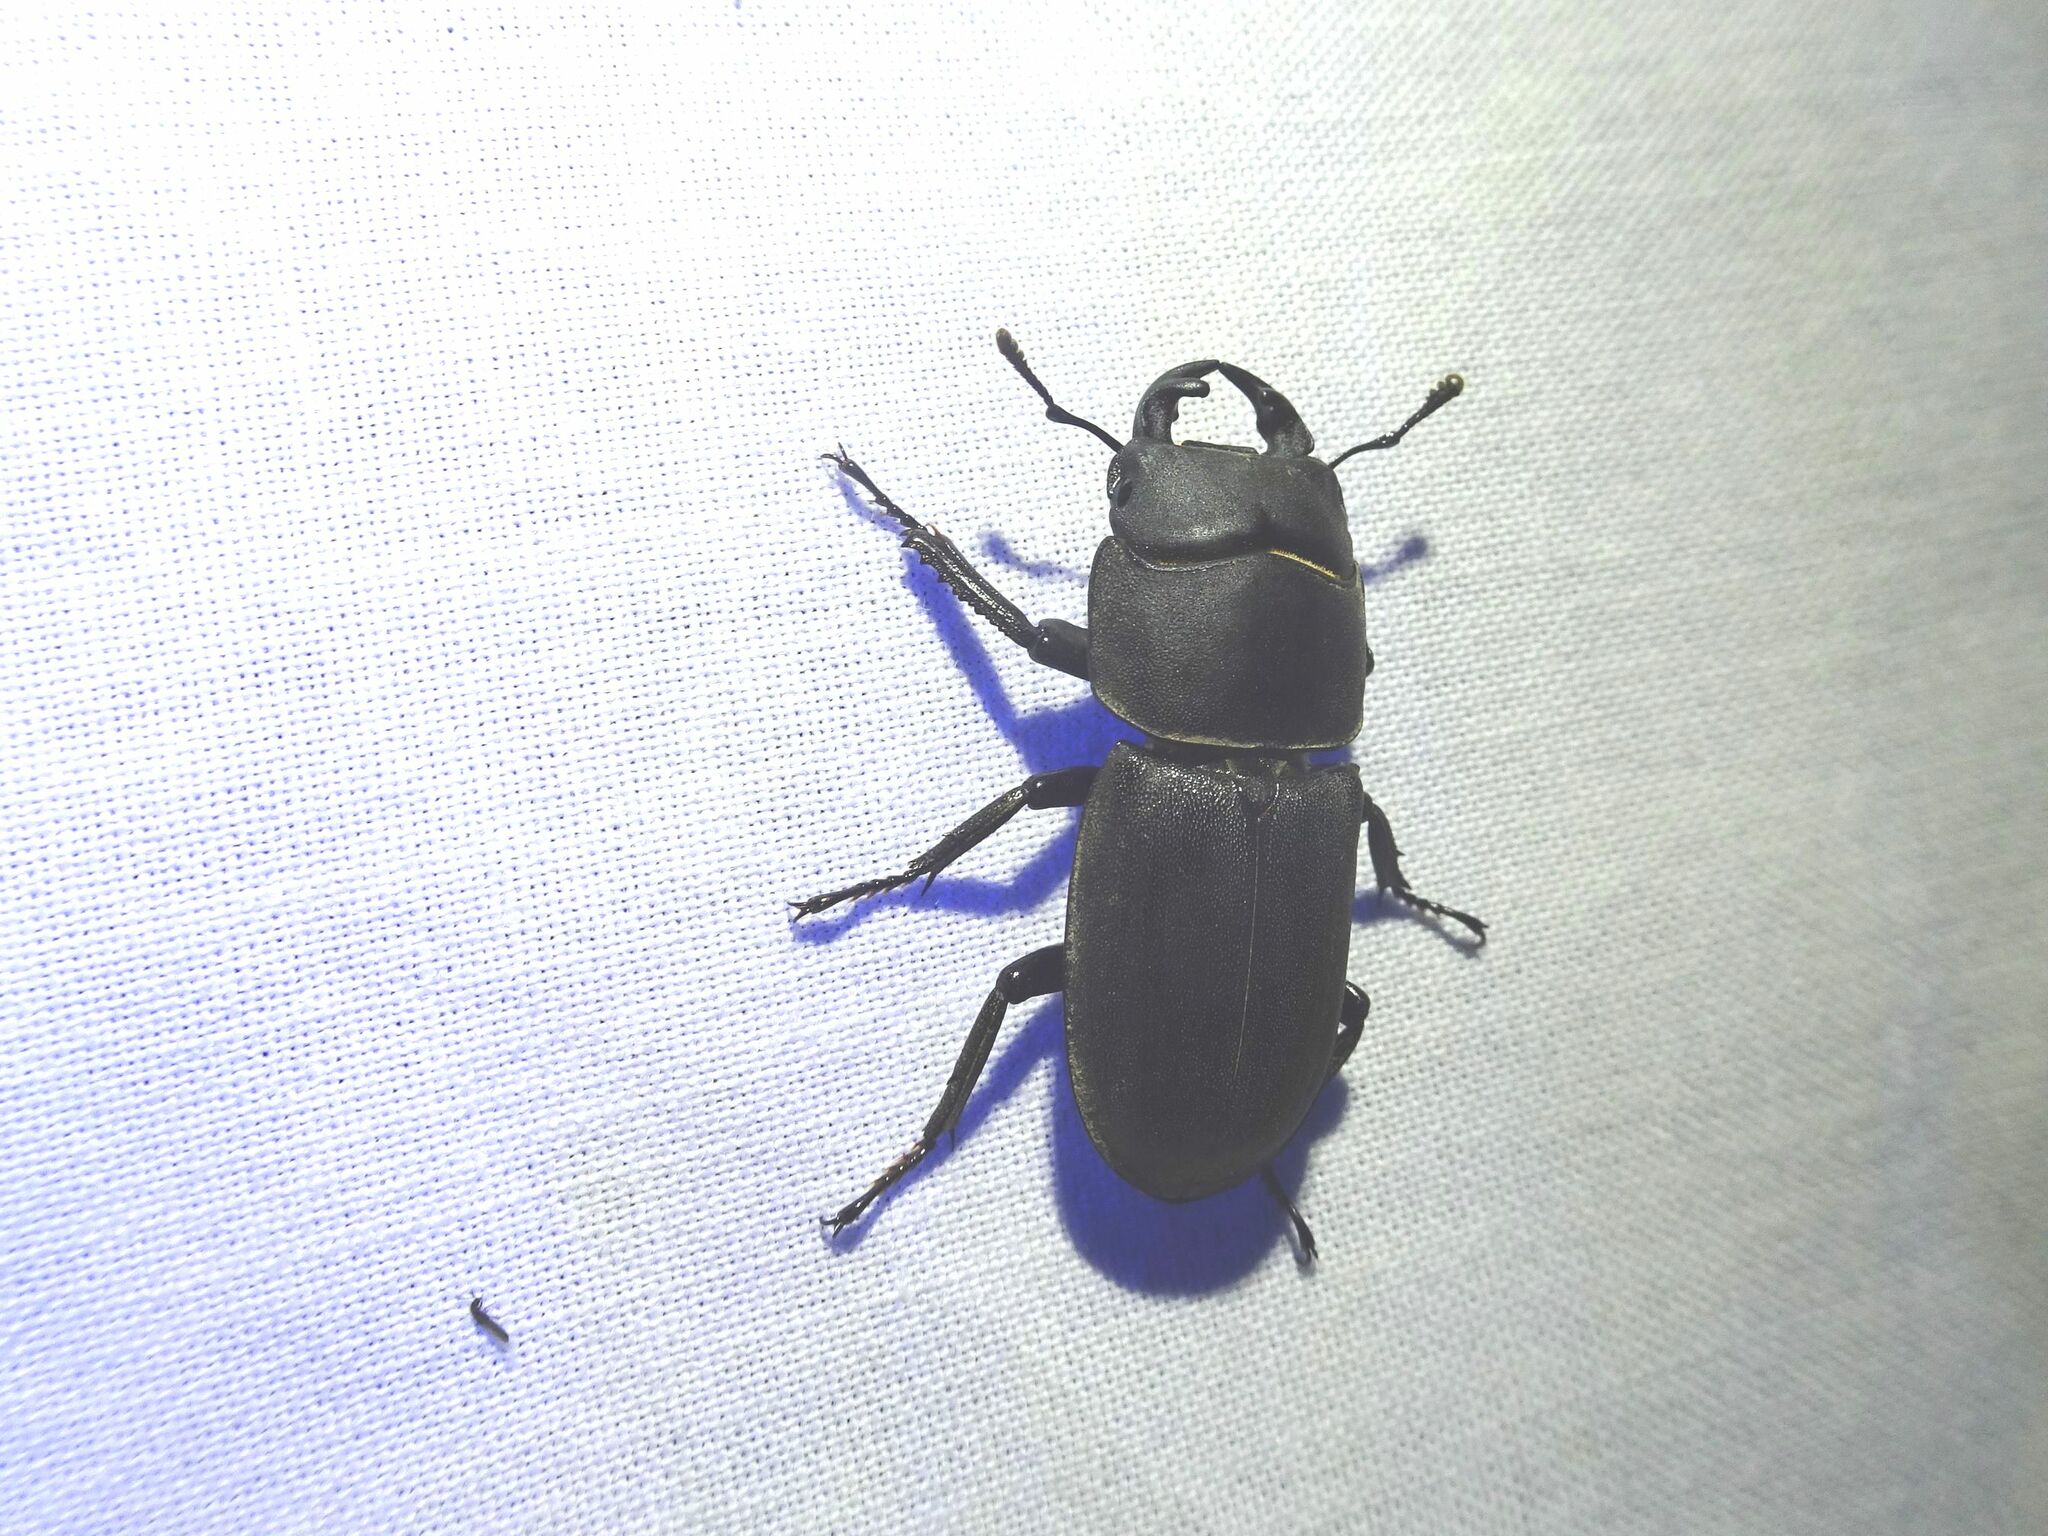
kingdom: Animalia
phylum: Arthropoda
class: Insecta
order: Coleoptera
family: Lucanidae
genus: Dorcus
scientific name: Dorcus parallelipipedus
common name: Lesser stag beetle
